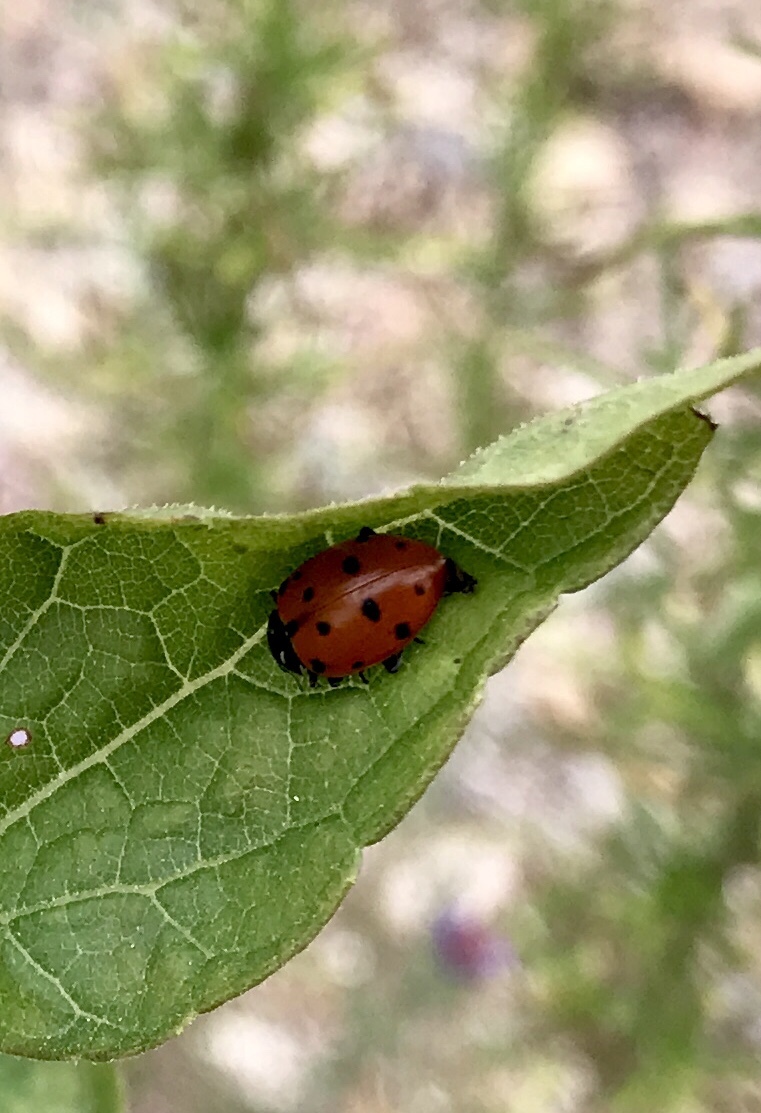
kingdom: Animalia
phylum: Arthropoda
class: Insecta
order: Coleoptera
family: Coccinellidae
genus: Hippodamia
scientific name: Hippodamia convergens
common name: Convergent lady beetle
